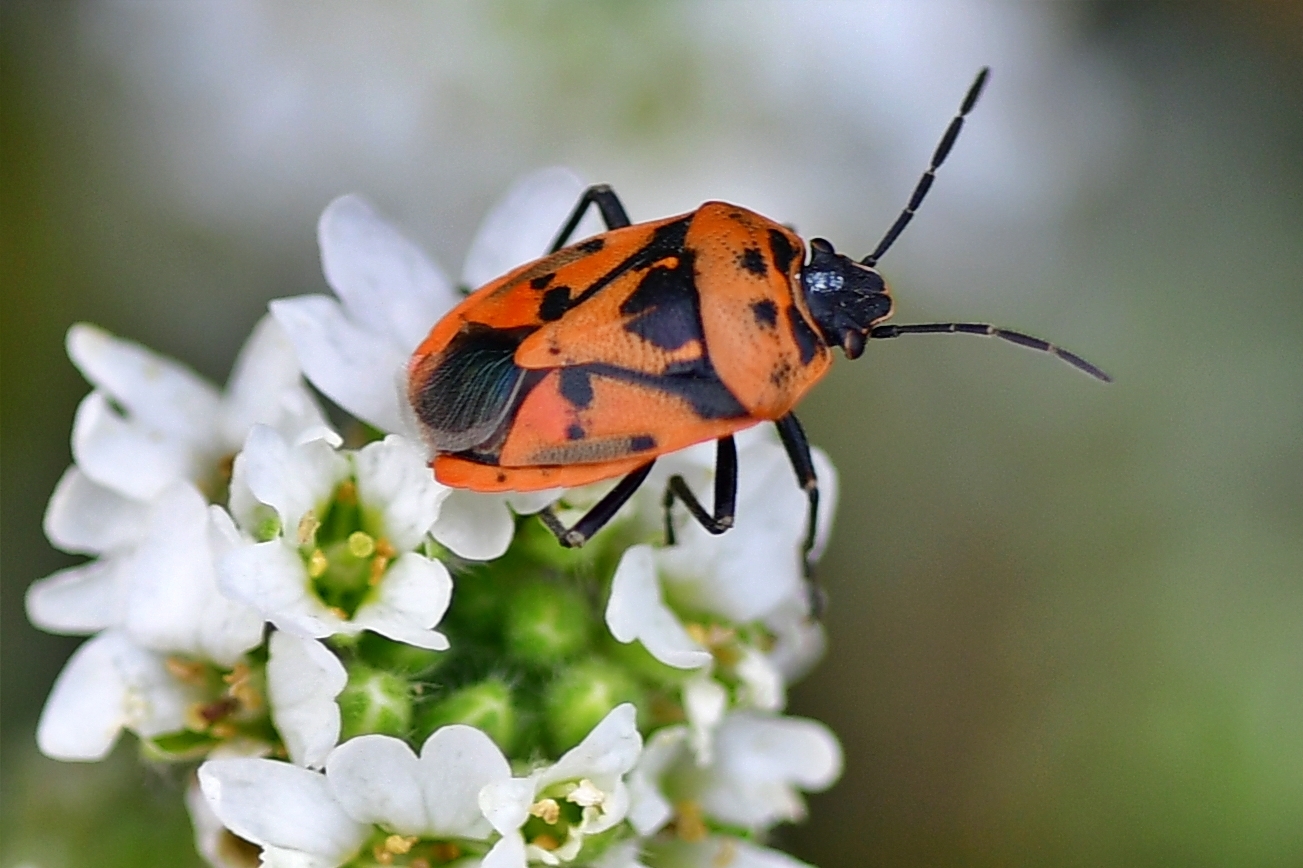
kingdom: Animalia
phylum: Arthropoda
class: Insecta
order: Hemiptera
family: Pentatomidae
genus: Eurydema
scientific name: Eurydema ornata
